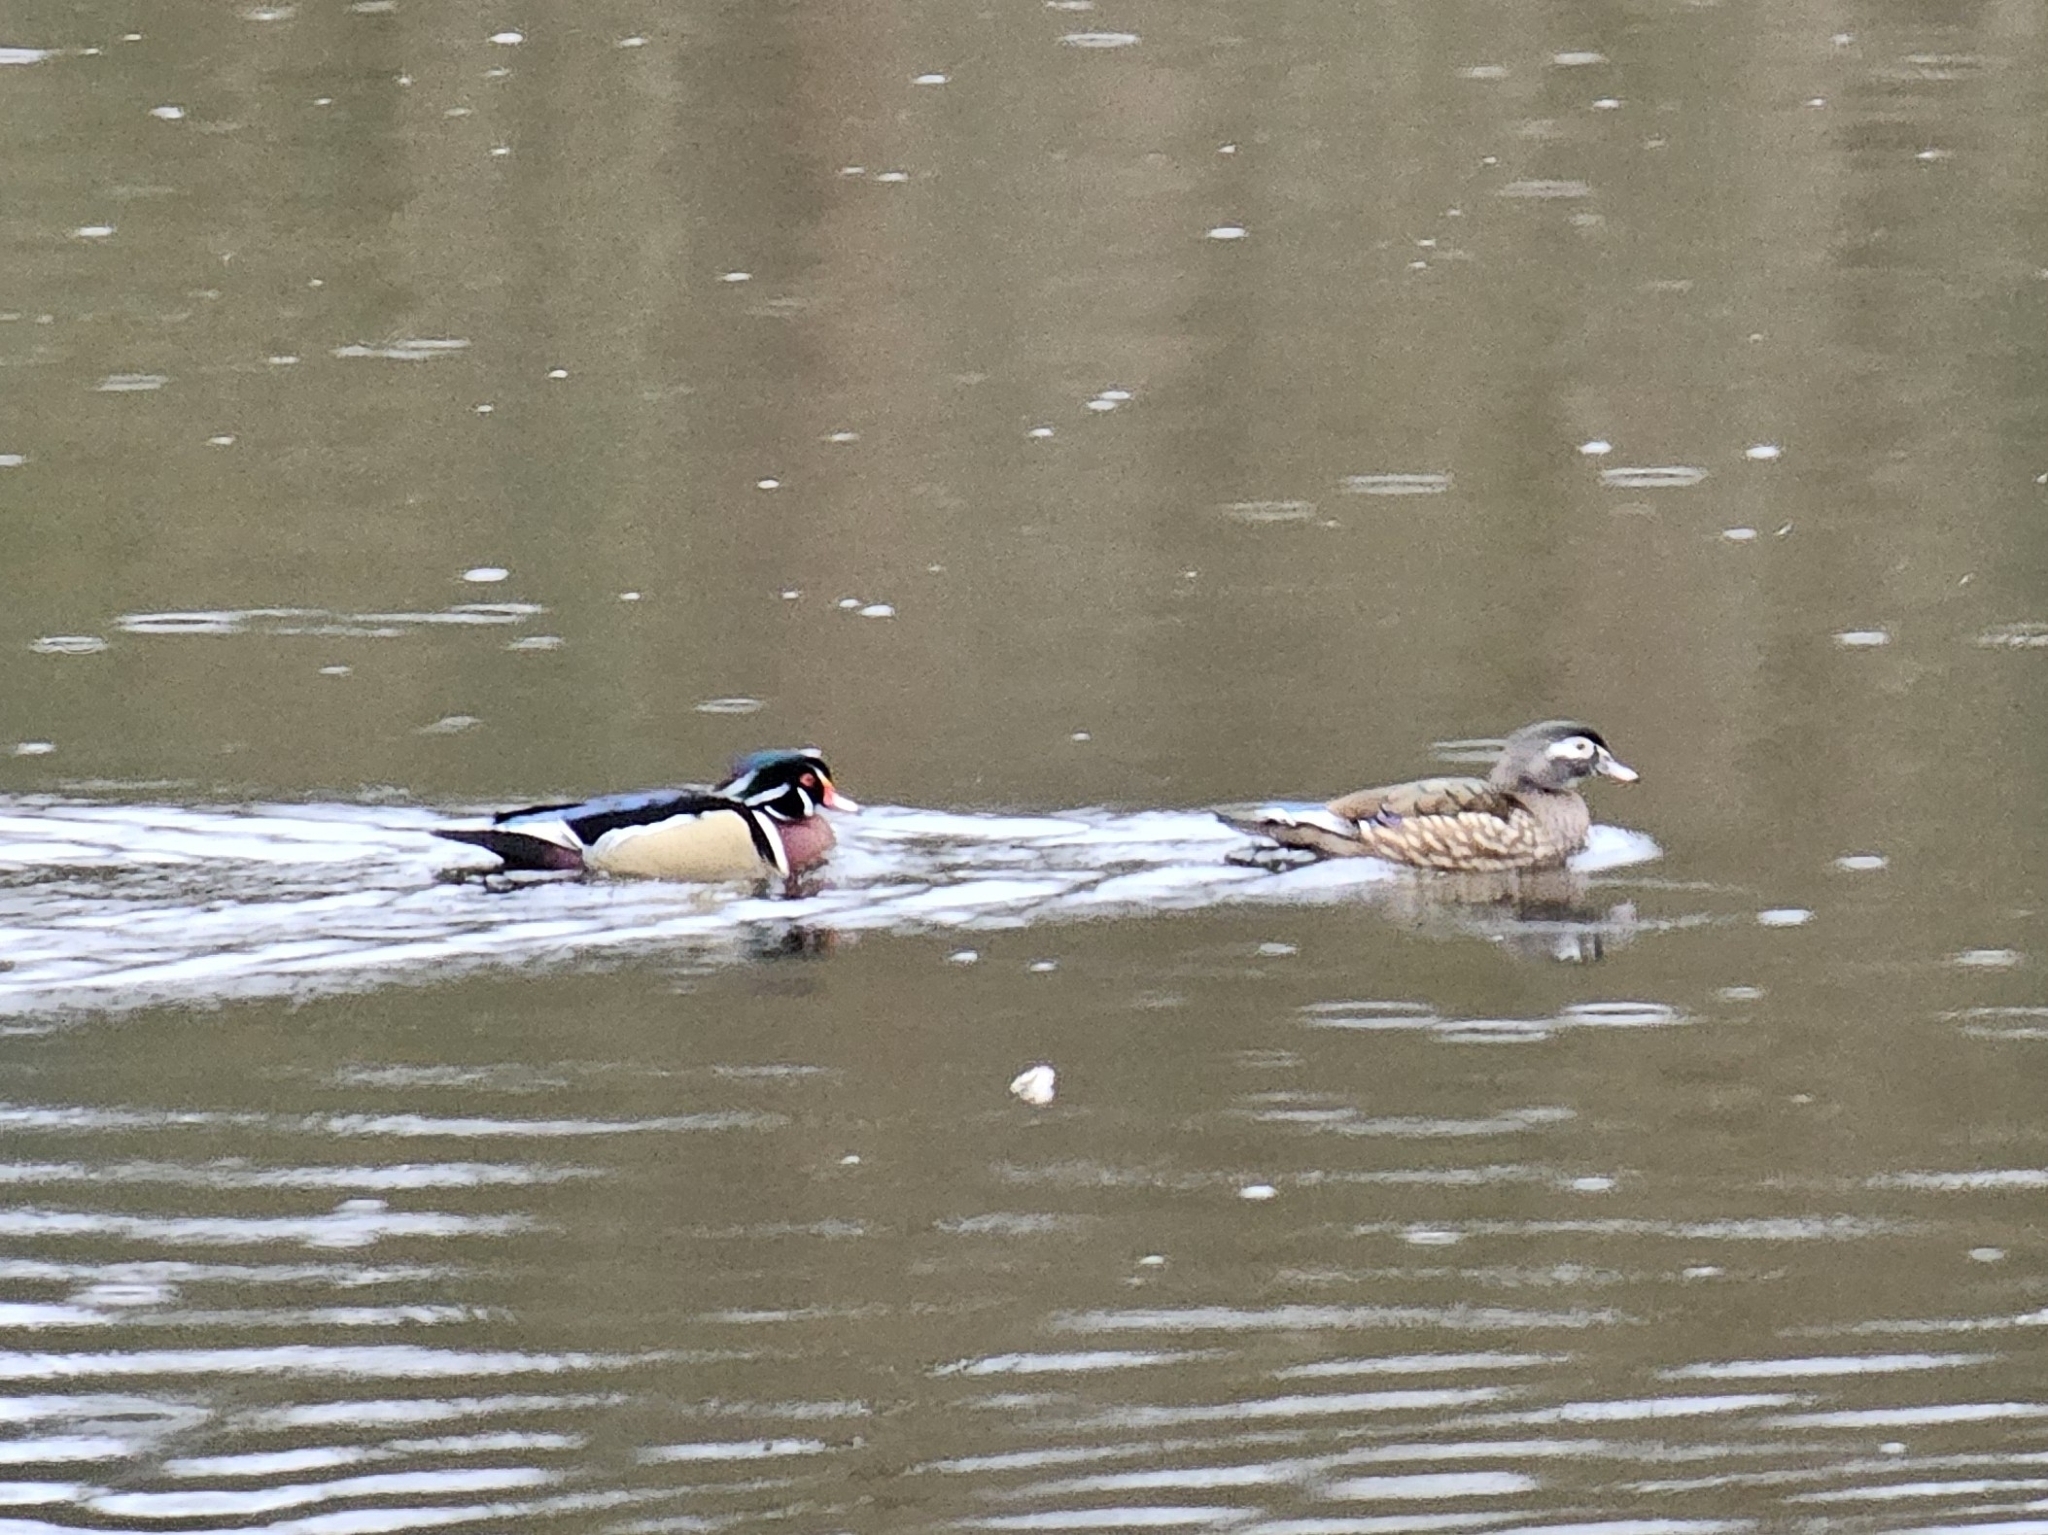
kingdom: Animalia
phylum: Chordata
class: Aves
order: Anseriformes
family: Anatidae
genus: Aix
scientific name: Aix sponsa
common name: Wood duck
